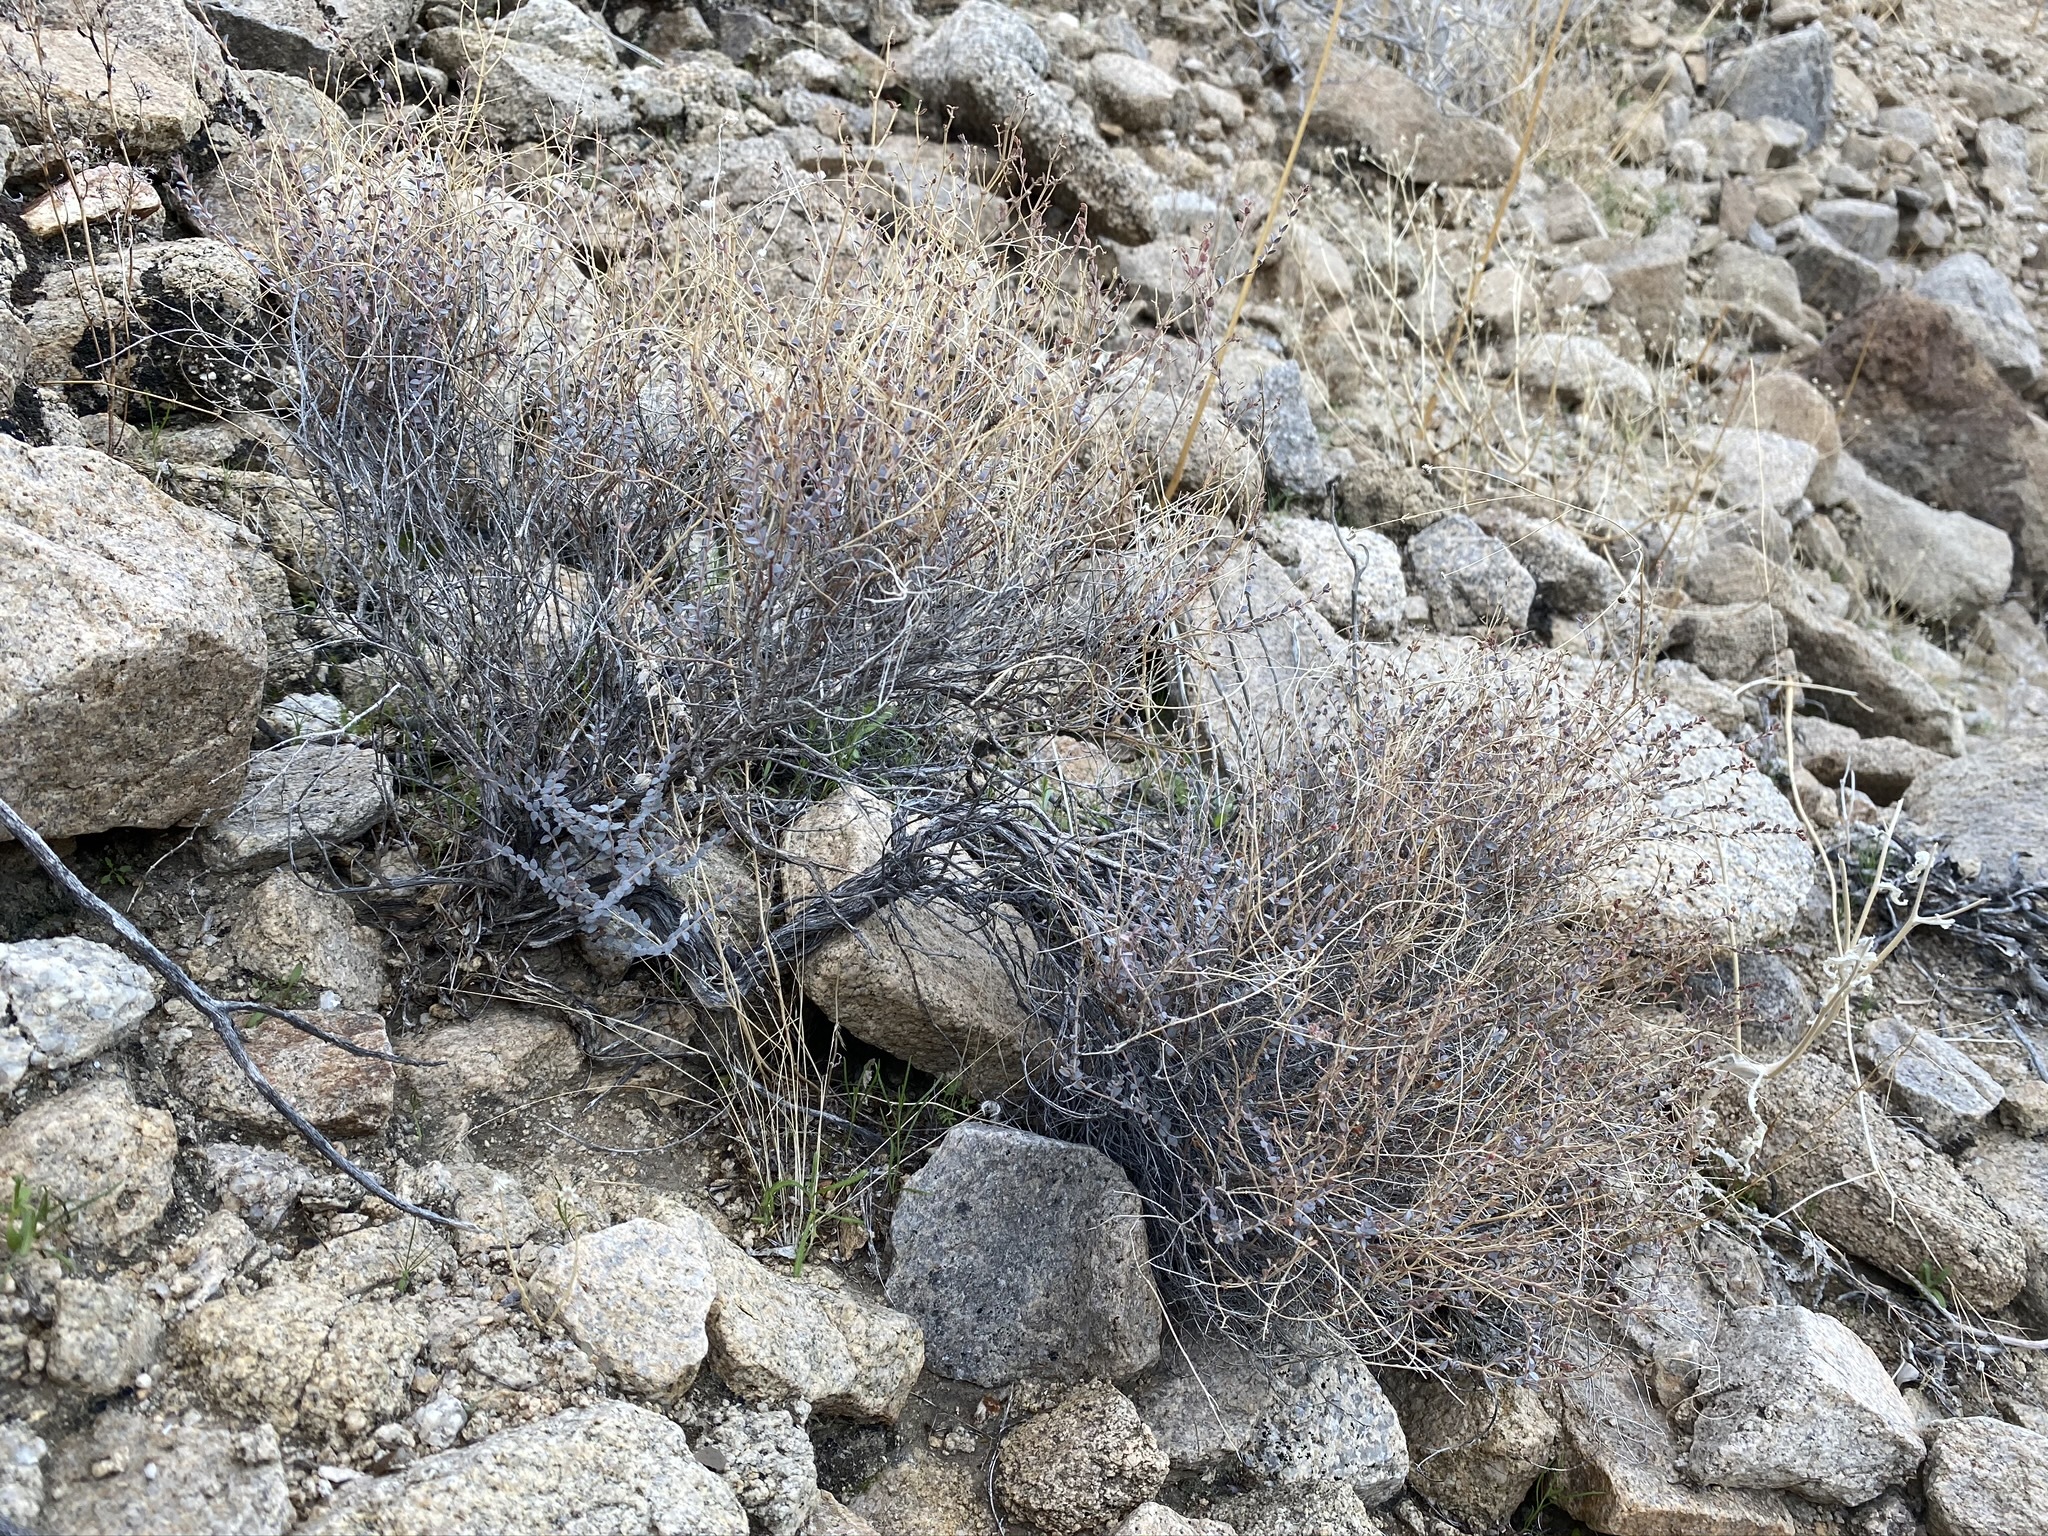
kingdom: Plantae
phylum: Tracheophyta
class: Magnoliopsida
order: Malpighiales
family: Euphorbiaceae
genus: Euphorbia
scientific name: Euphorbia jaegeri
